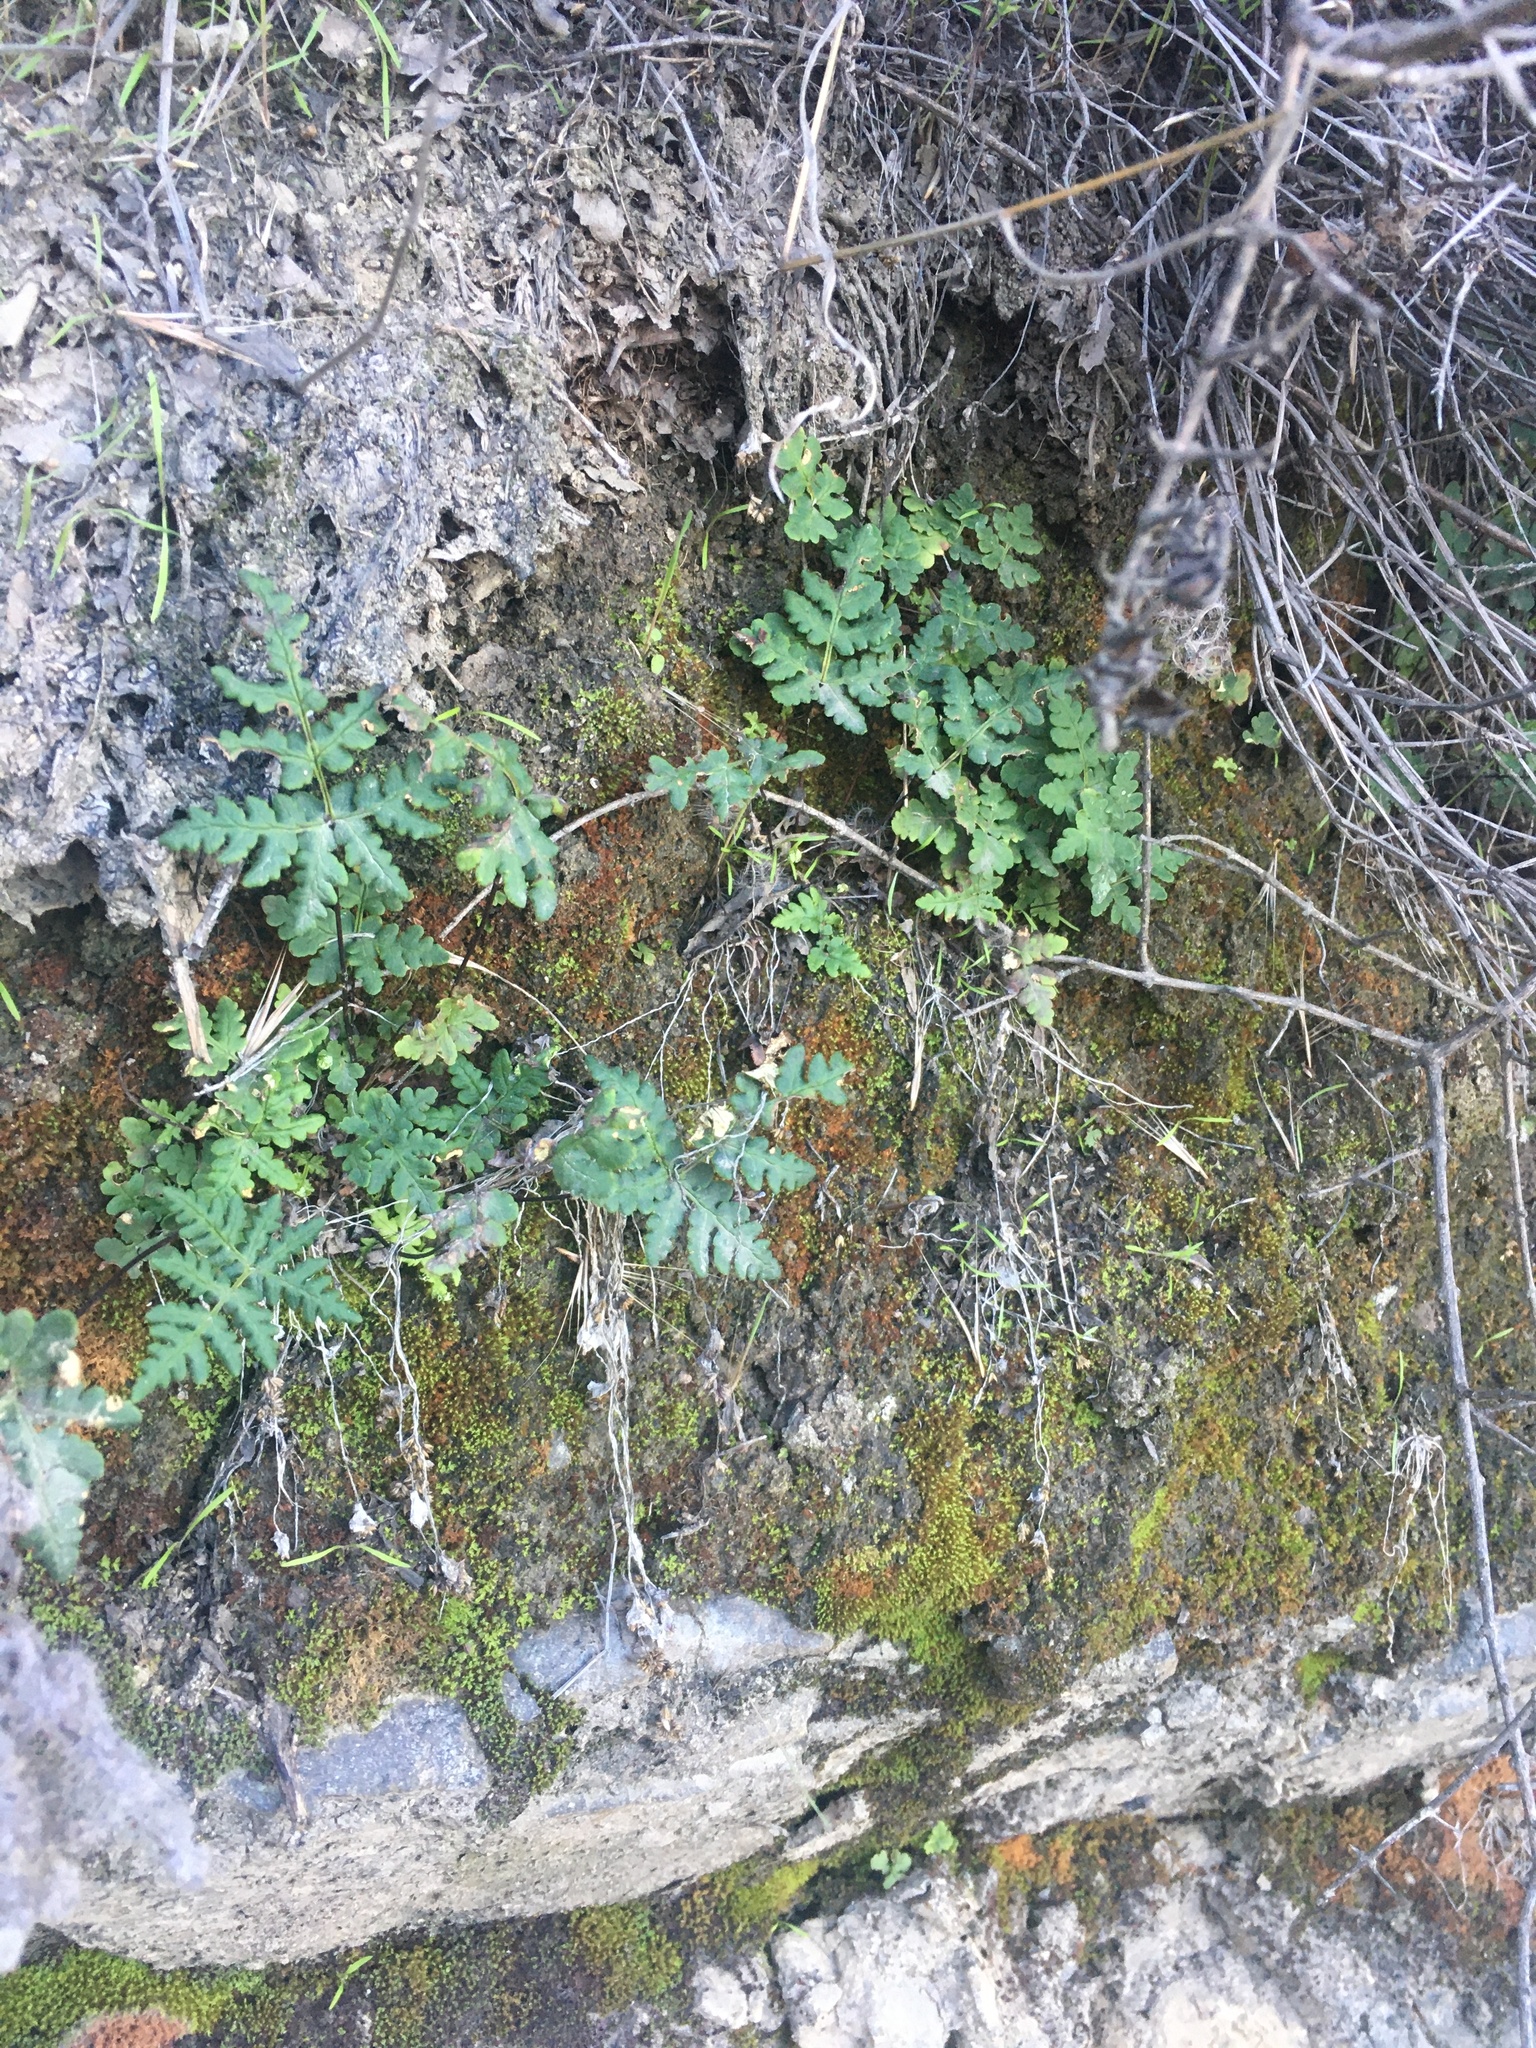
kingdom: Plantae
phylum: Tracheophyta
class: Polypodiopsida
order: Polypodiales
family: Pteridaceae
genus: Pentagramma
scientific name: Pentagramma triangularis
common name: Gold fern
